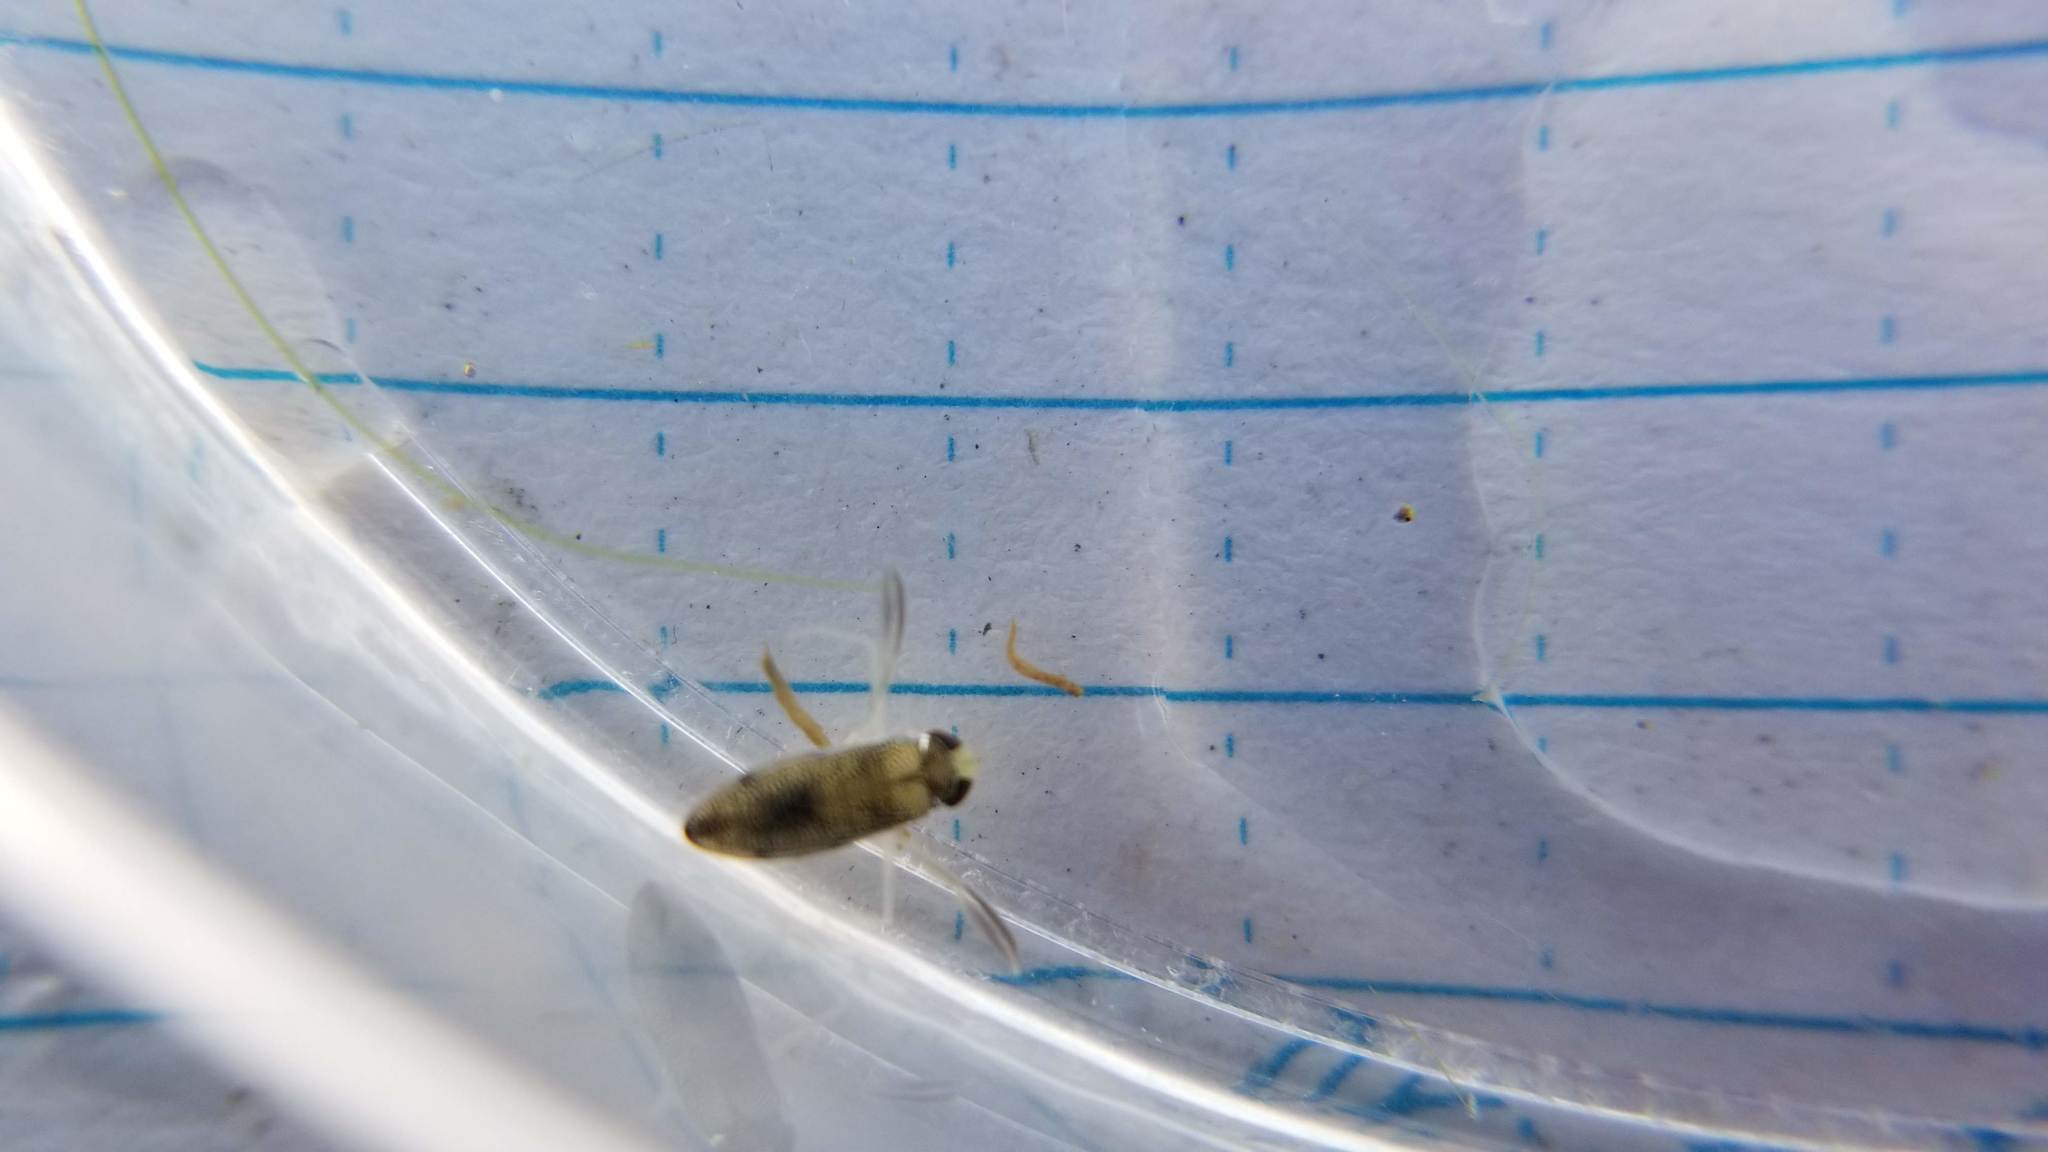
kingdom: Animalia
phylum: Arthropoda
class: Insecta
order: Hemiptera
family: Corixidae
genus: Palmacorixa
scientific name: Palmacorixa
